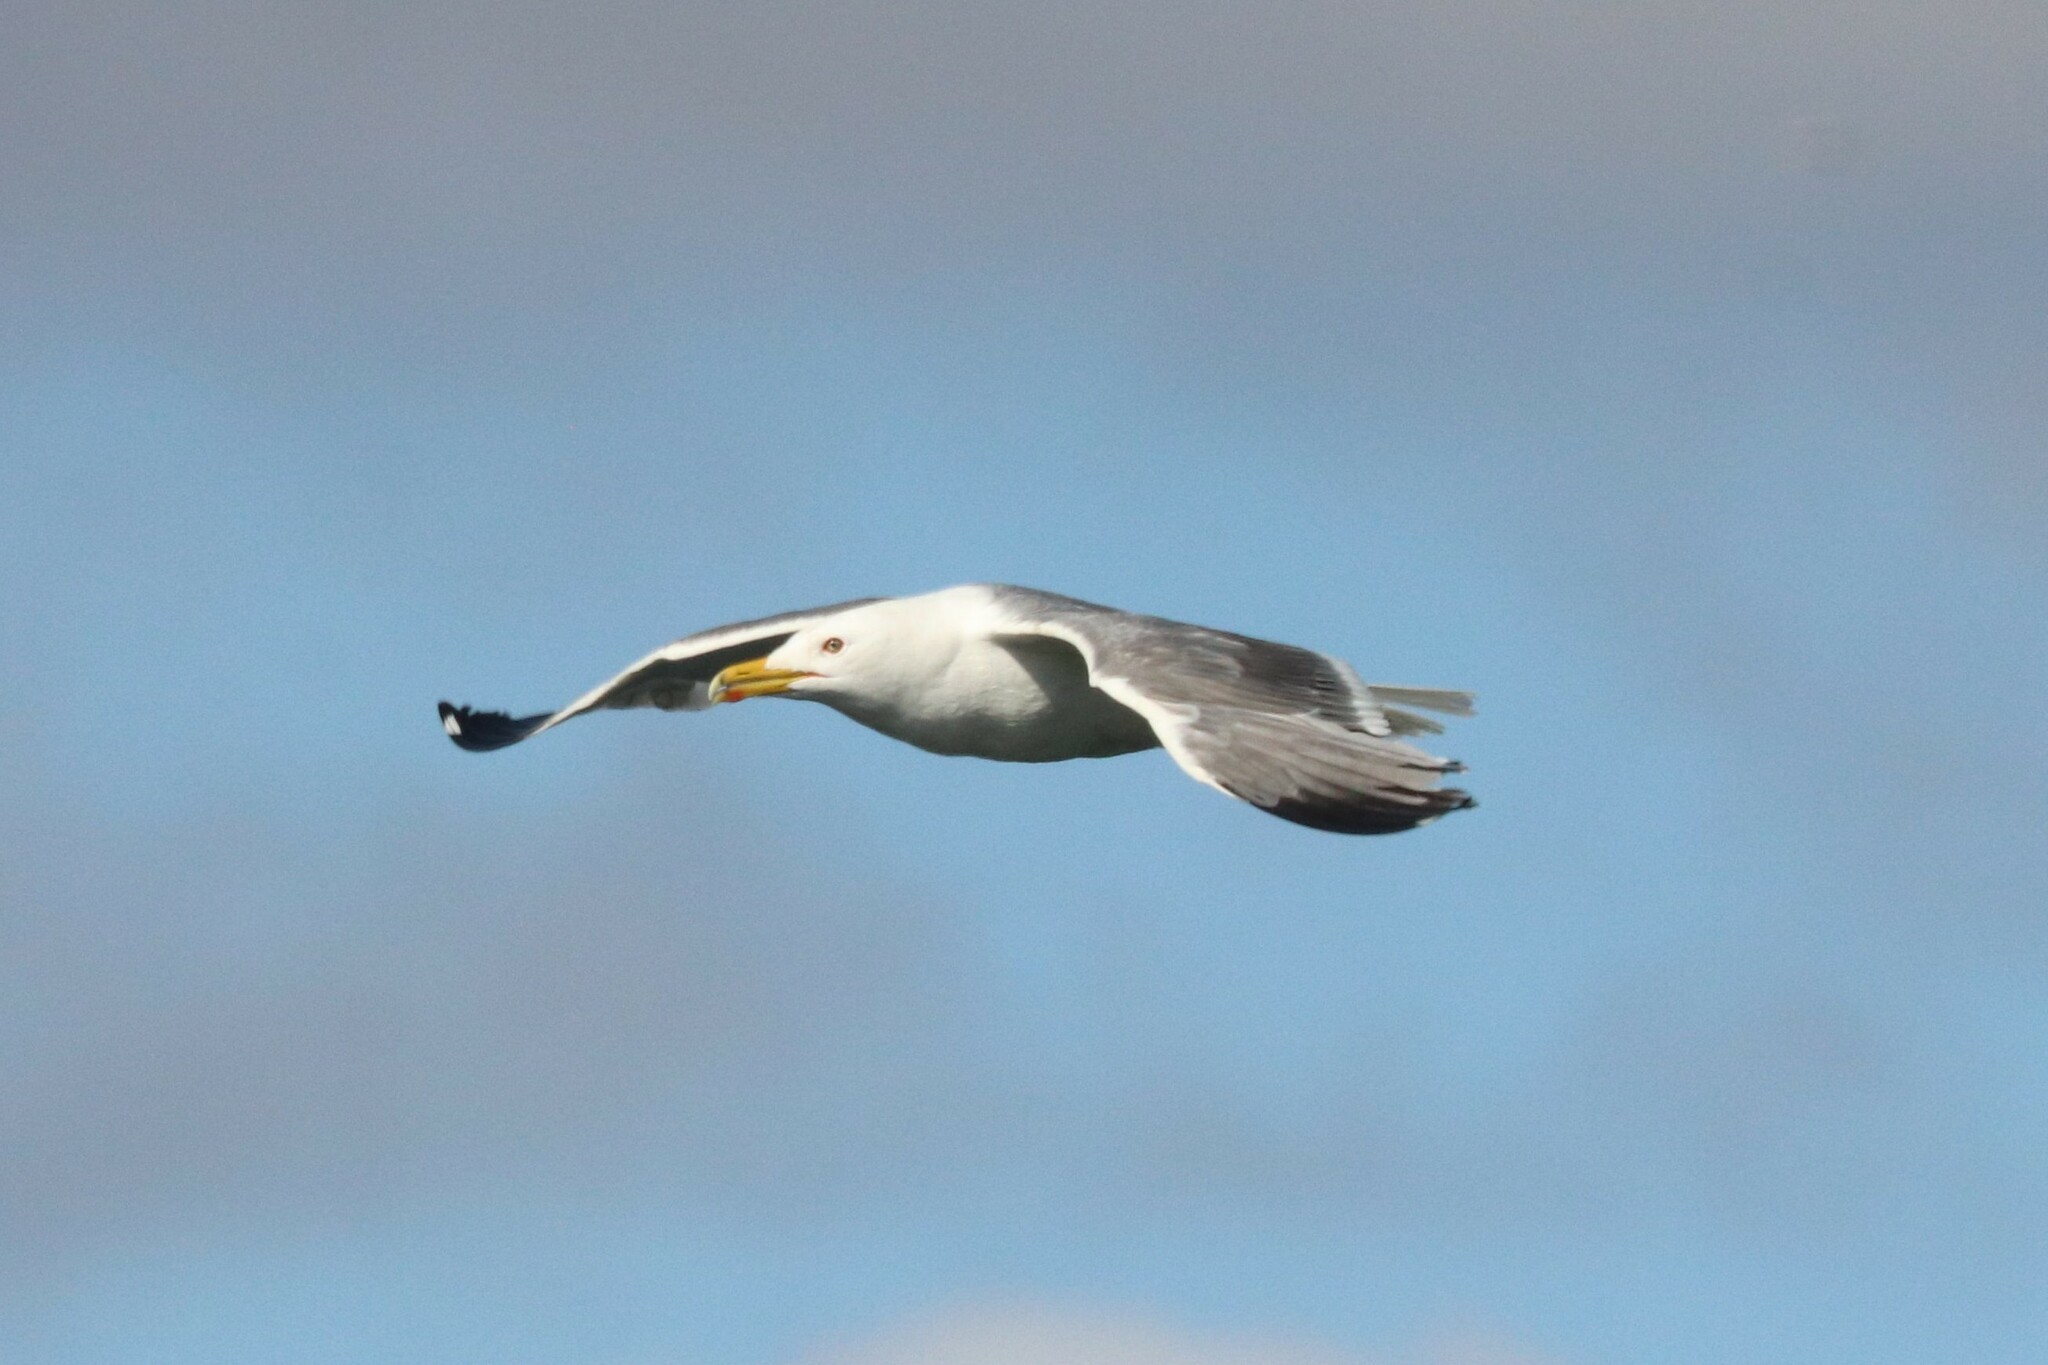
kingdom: Animalia
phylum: Chordata
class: Aves
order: Charadriiformes
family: Laridae
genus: Larus
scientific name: Larus fuscus
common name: Lesser black-backed gull
